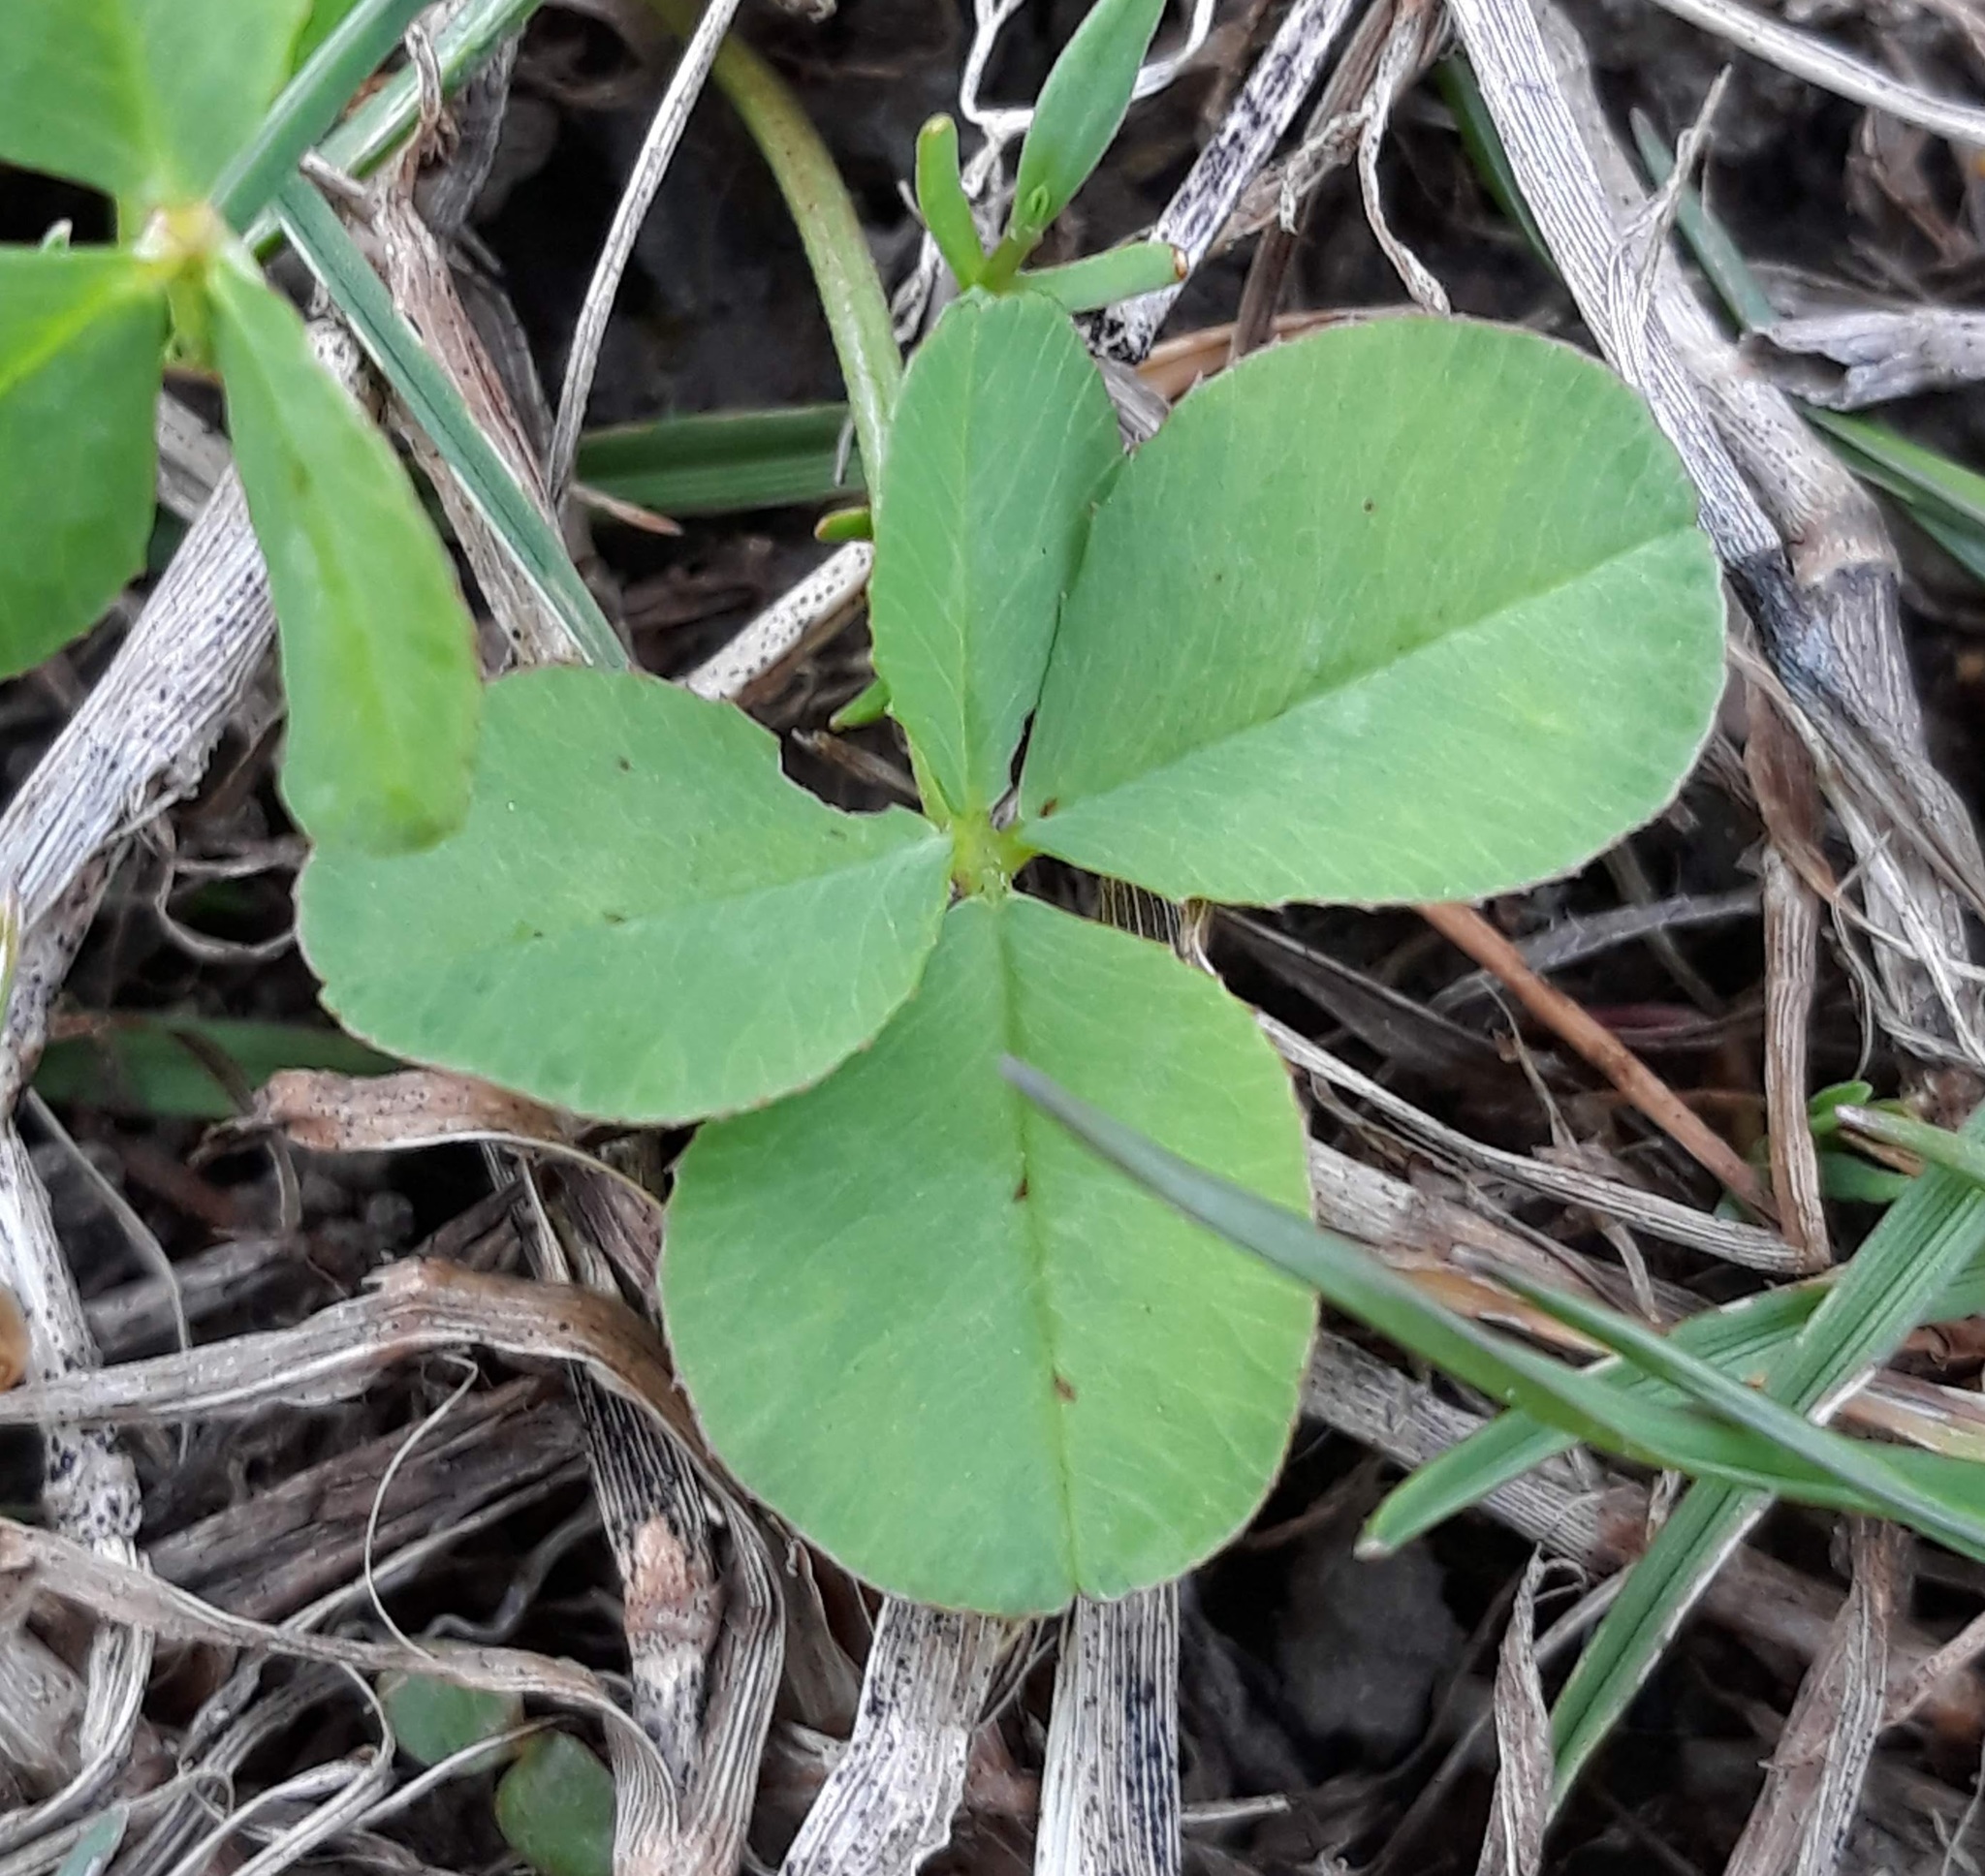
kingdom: Plantae
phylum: Tracheophyta
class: Magnoliopsida
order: Fabales
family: Fabaceae
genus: Trifolium
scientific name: Trifolium repens
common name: White clover
